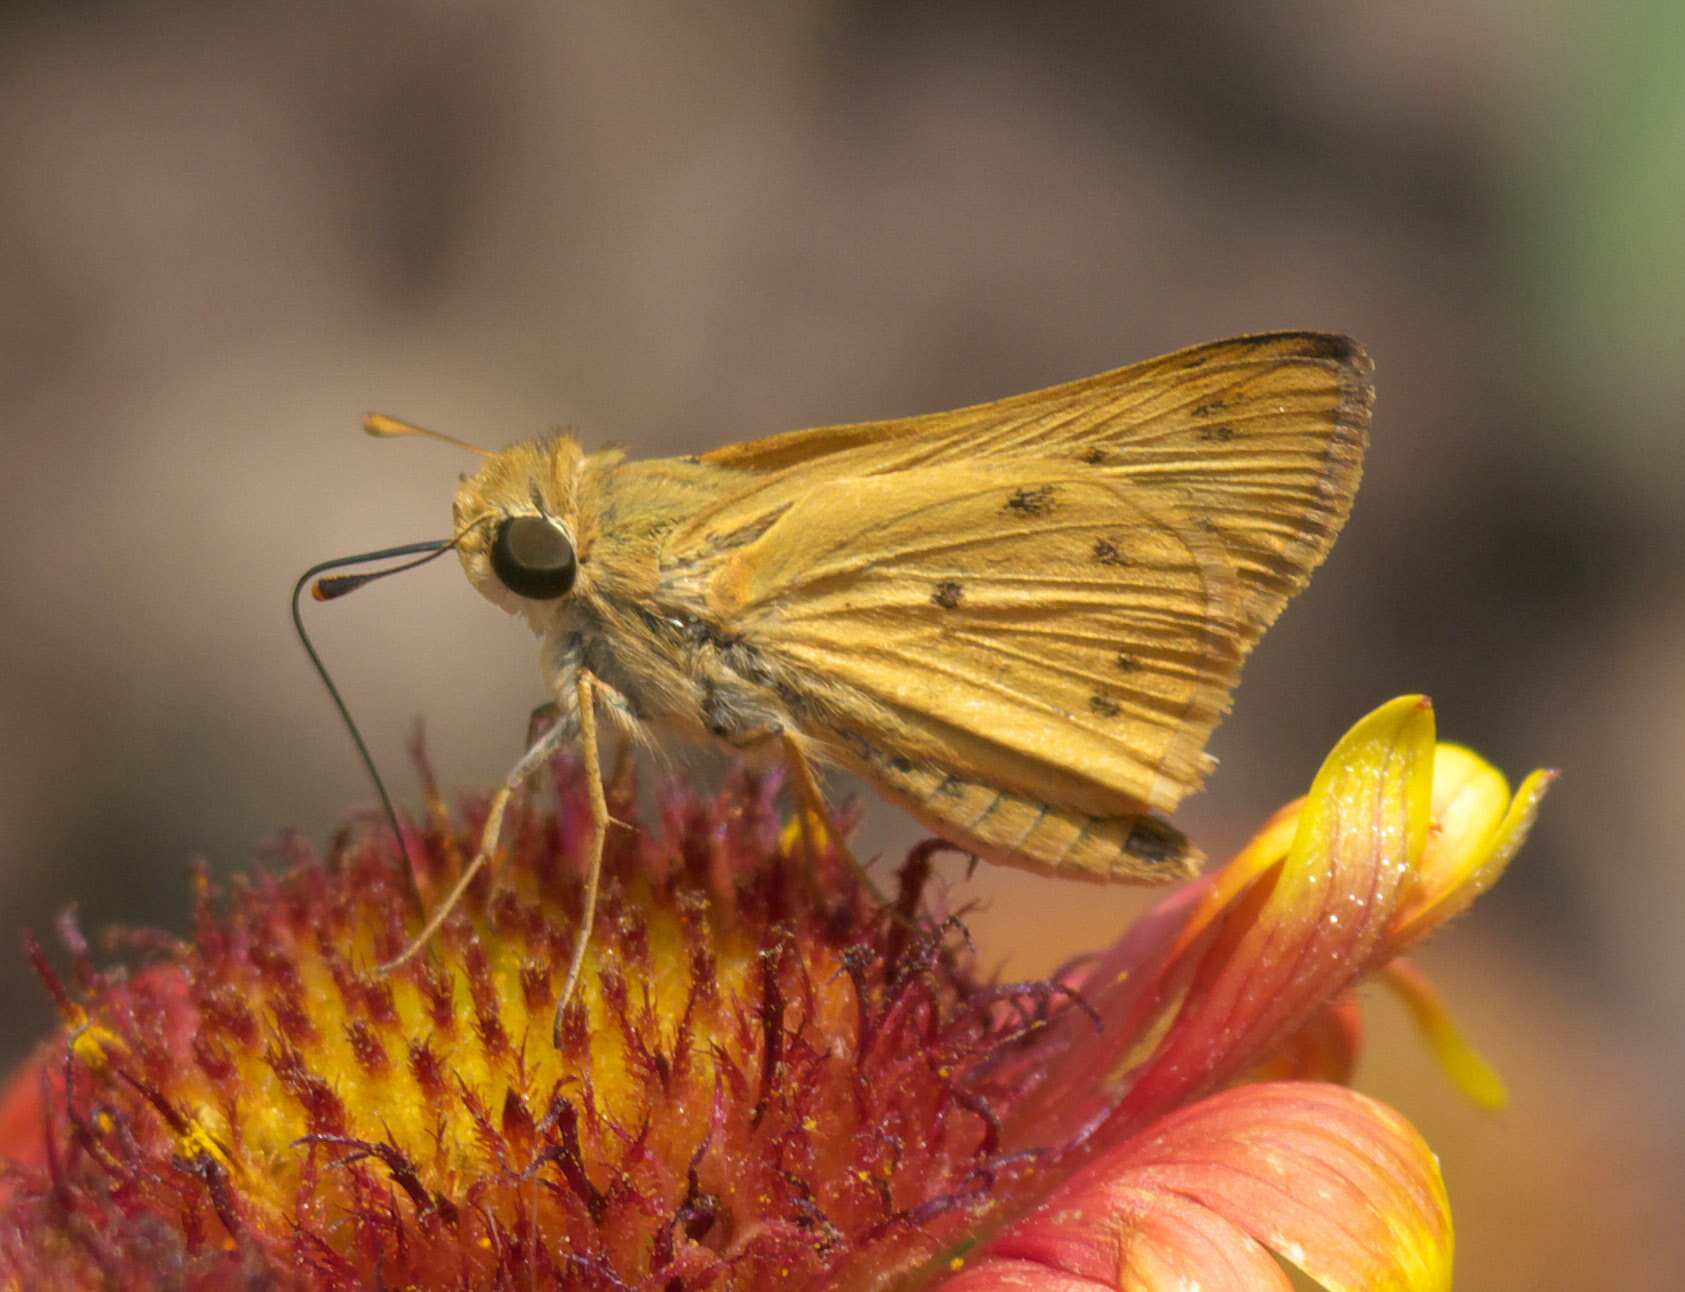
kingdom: Animalia
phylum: Arthropoda
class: Insecta
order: Lepidoptera
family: Hesperiidae
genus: Hylephila
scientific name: Hylephila phyleus
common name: Fiery skipper
